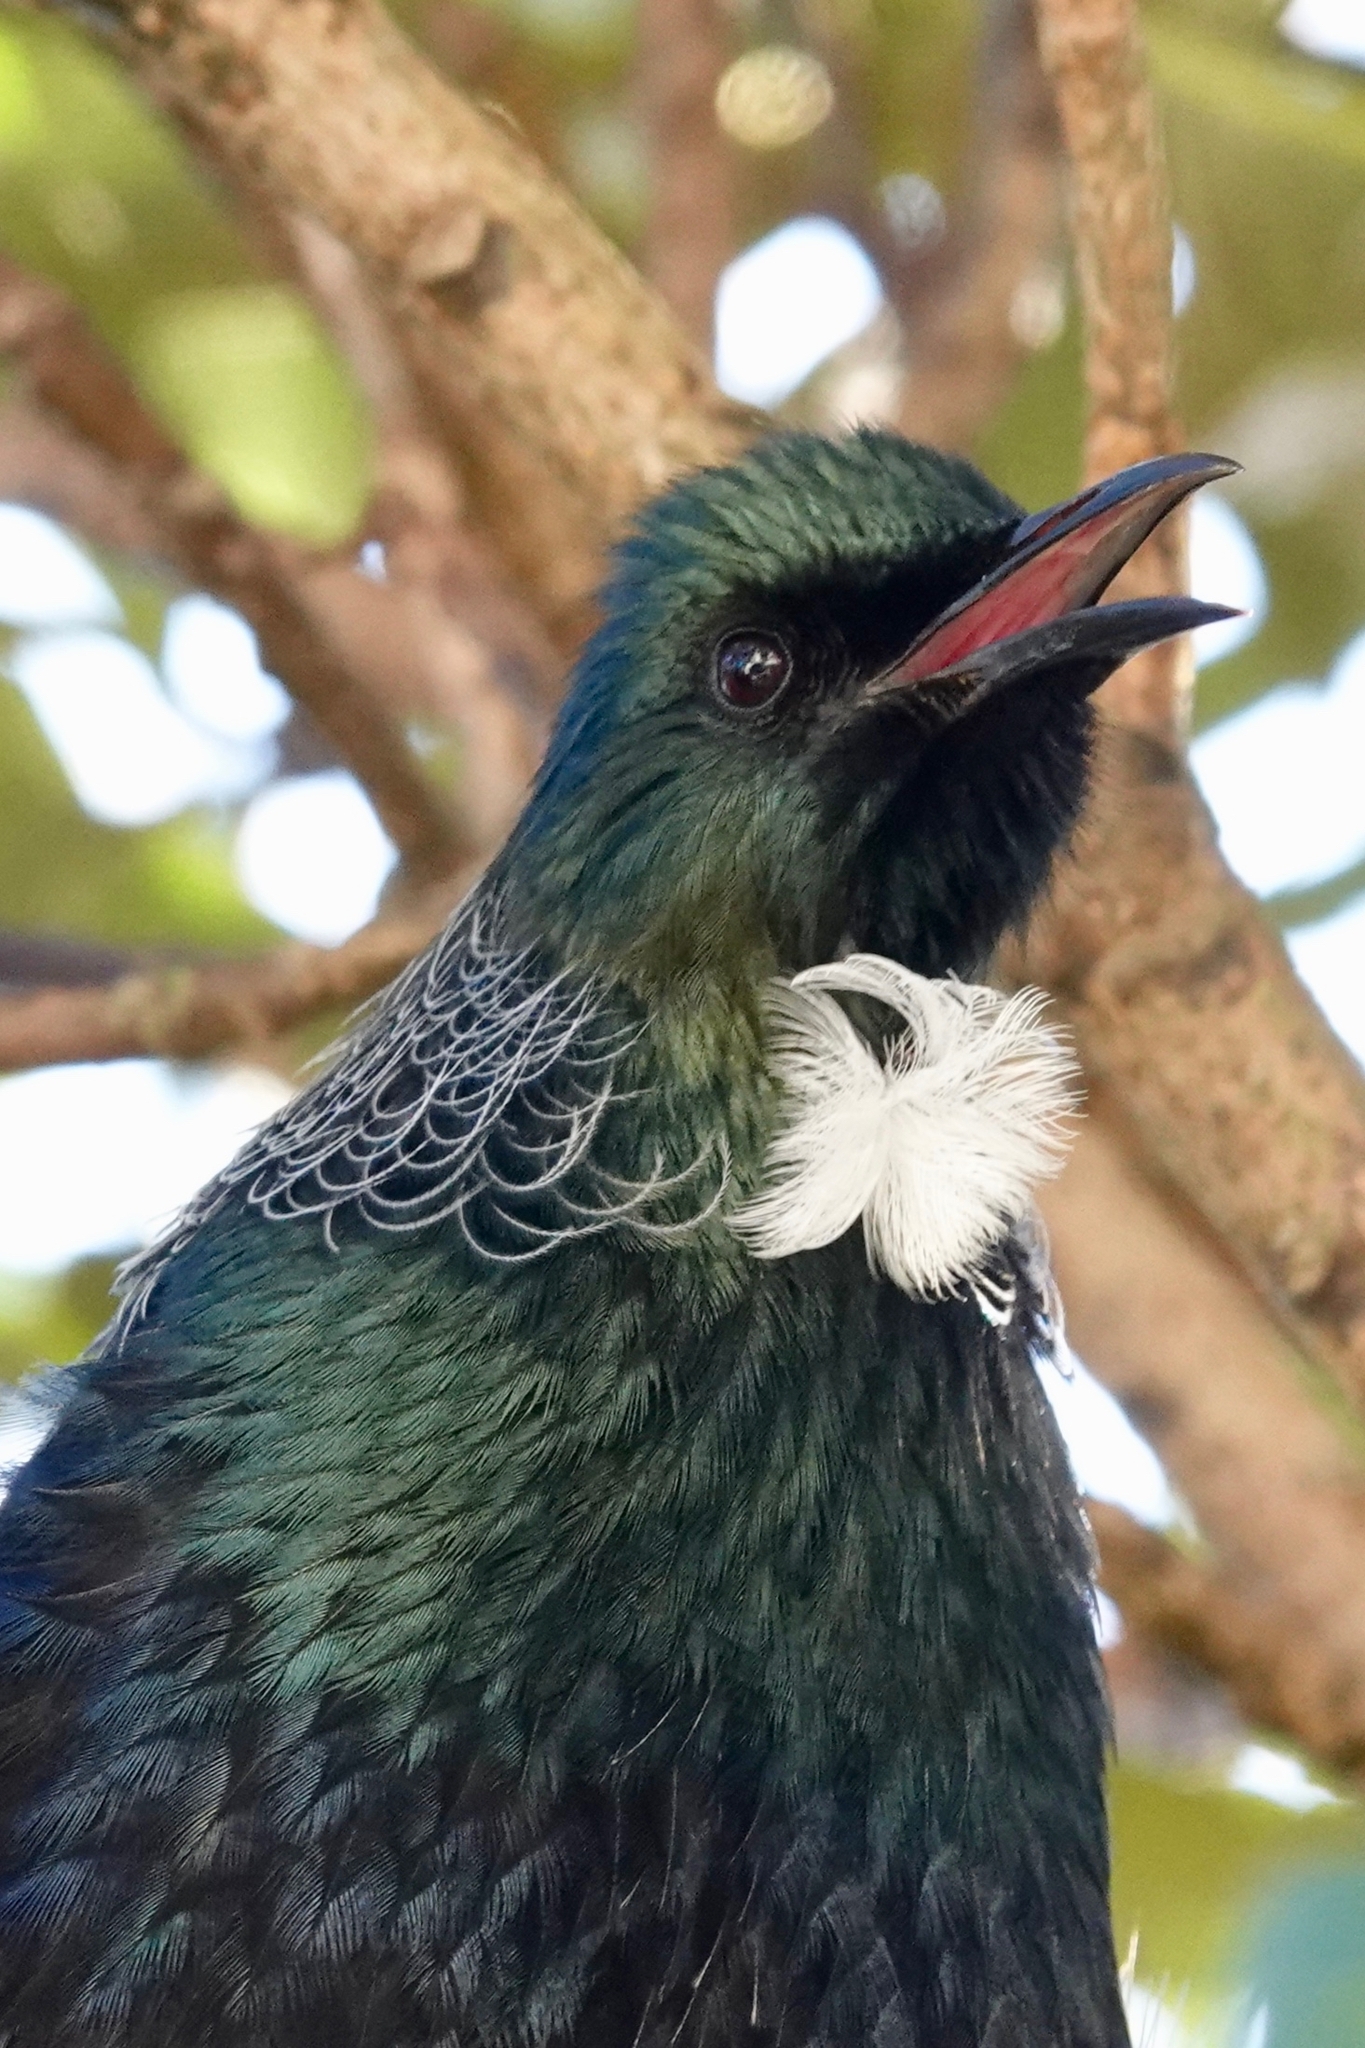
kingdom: Animalia
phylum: Chordata
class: Aves
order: Passeriformes
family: Meliphagidae
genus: Prosthemadera
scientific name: Prosthemadera novaeseelandiae
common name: Tui
